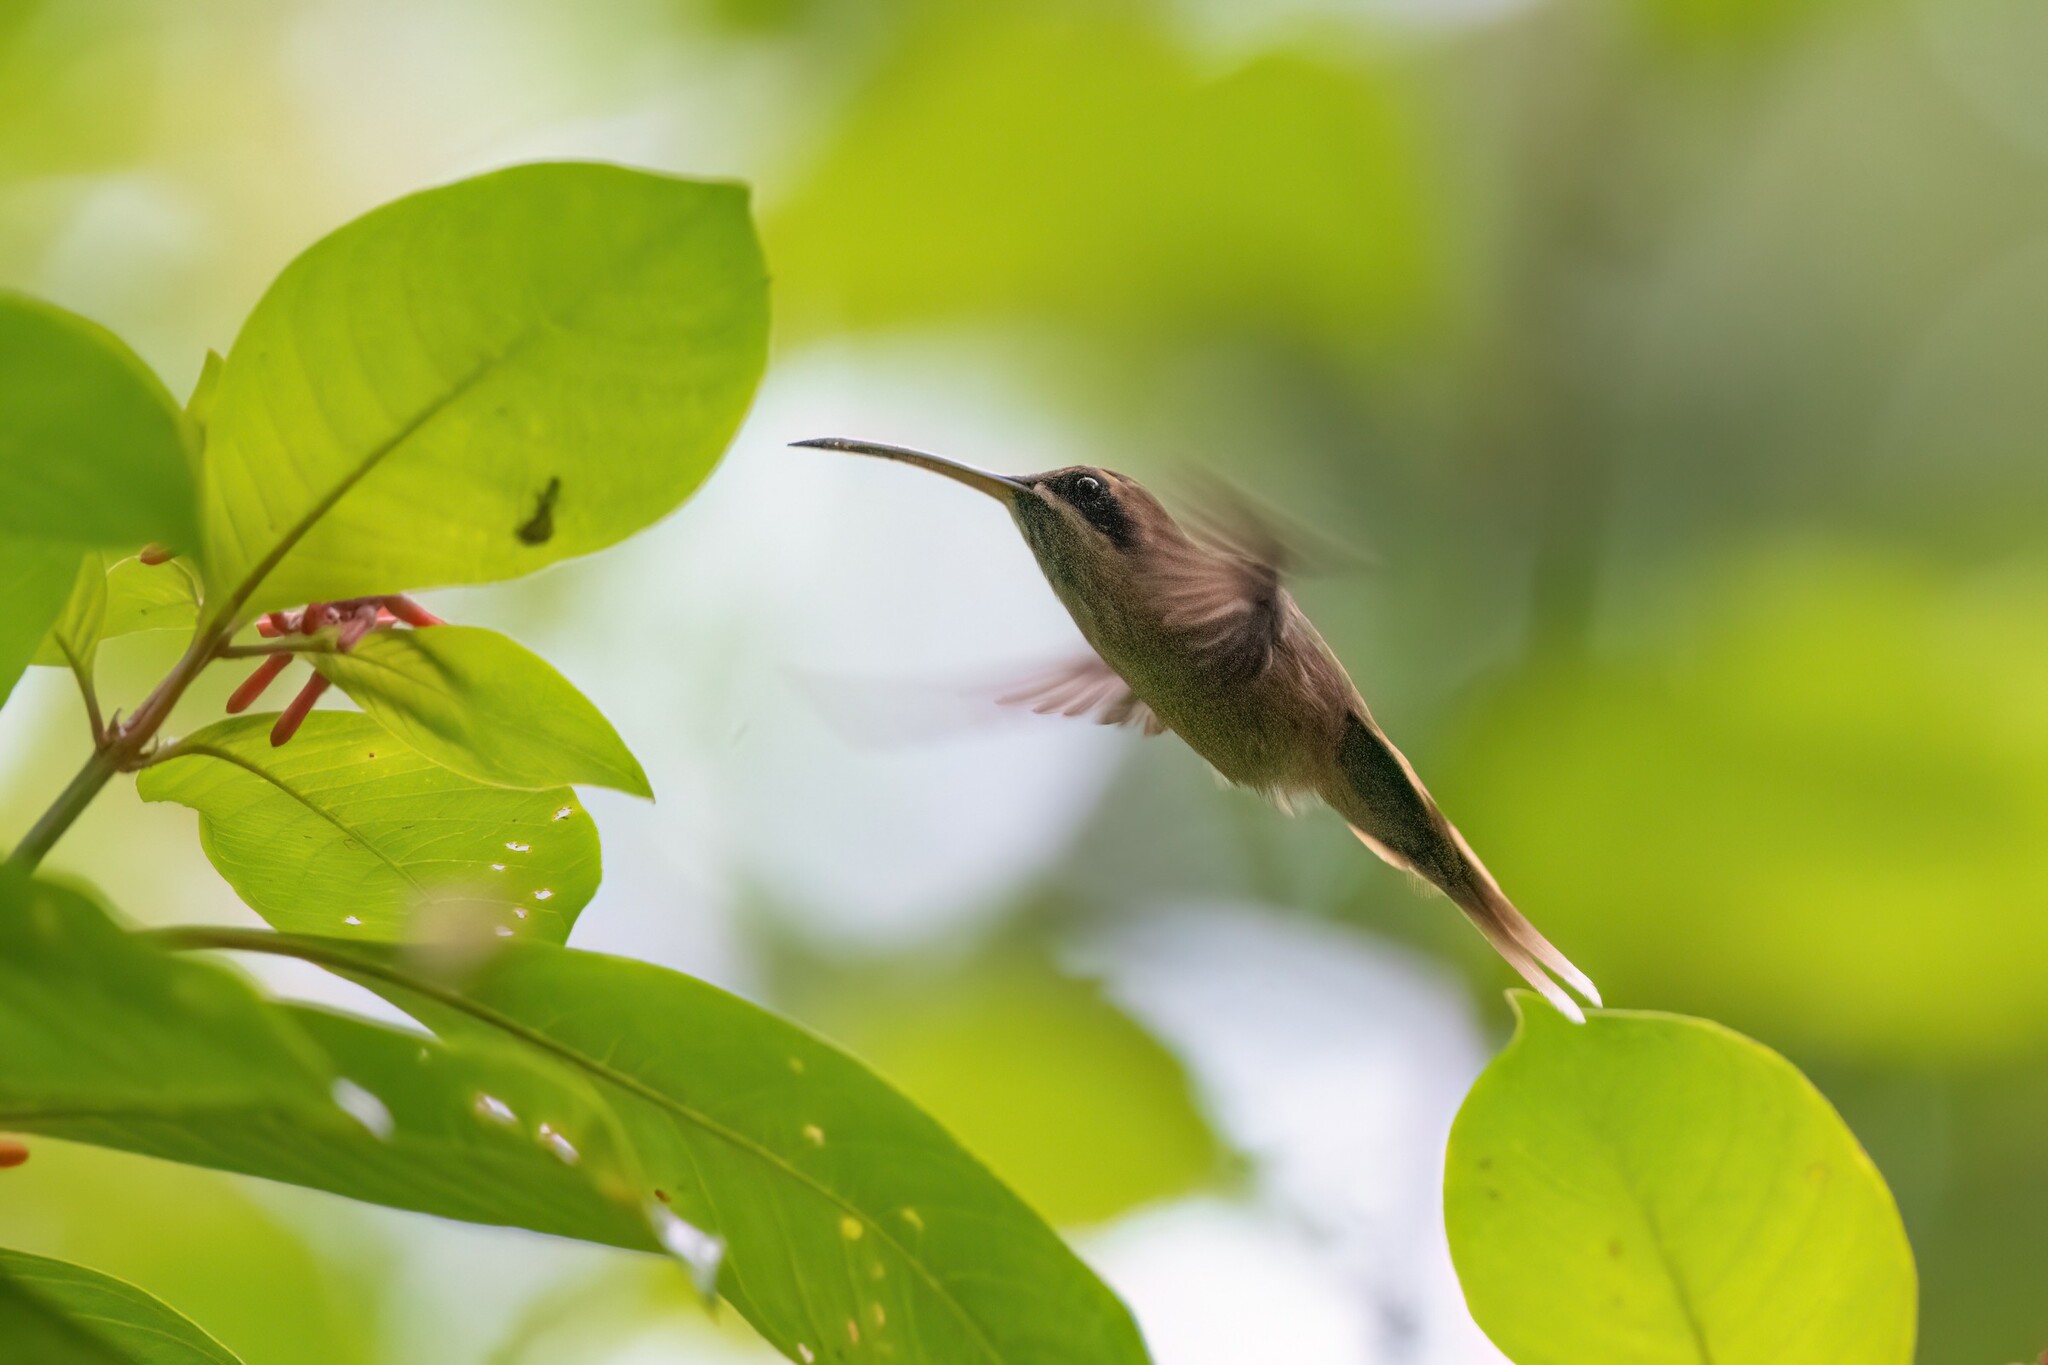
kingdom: Animalia
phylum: Chordata
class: Aves
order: Apodiformes
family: Trochilidae
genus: Phaethornis
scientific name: Phaethornis striigularis
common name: Stripe-throated hermit
